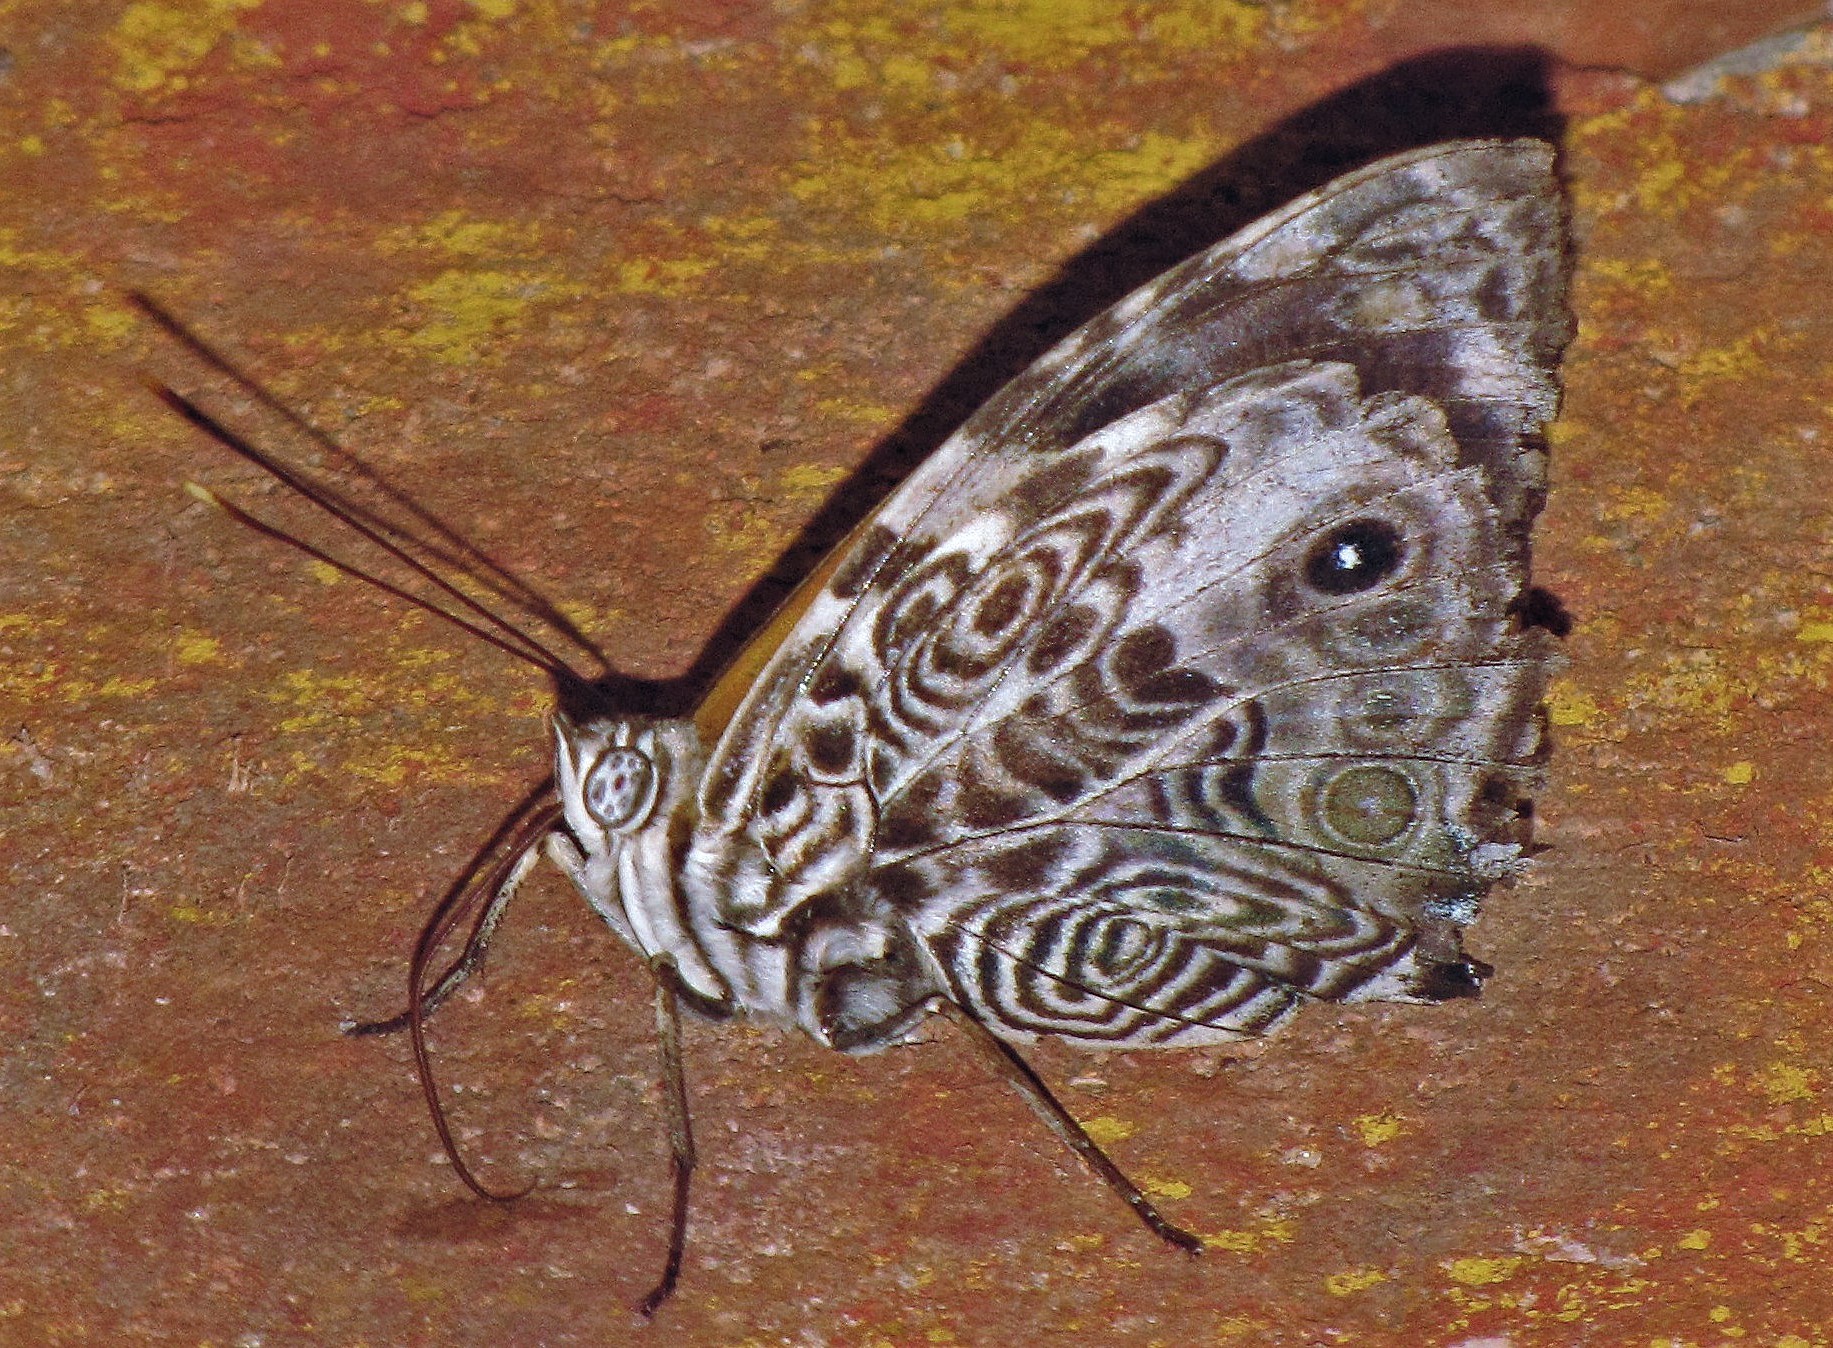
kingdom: Animalia
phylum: Arthropoda
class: Insecta
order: Lepidoptera
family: Nymphalidae
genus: Smyrna
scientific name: Smyrna blomfildia
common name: Blomfild's beauty
